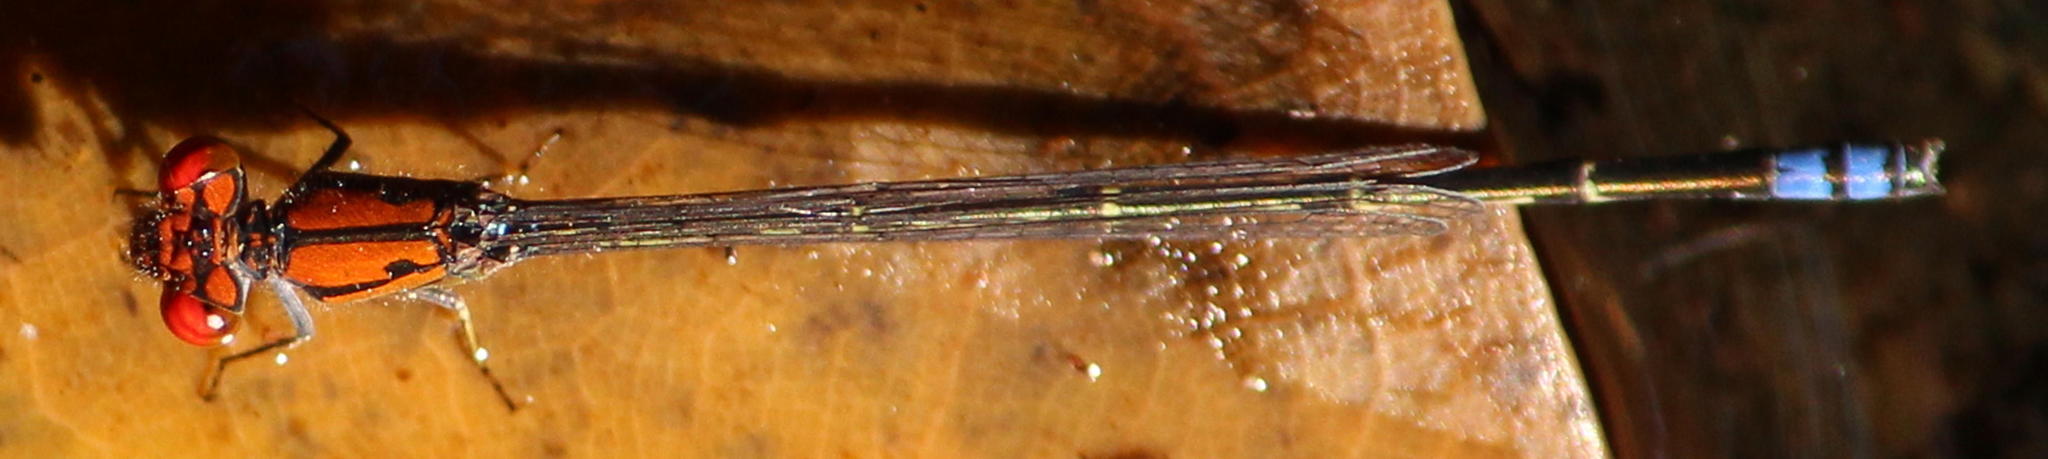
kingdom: Animalia
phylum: Arthropoda
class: Insecta
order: Odonata
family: Coenagrionidae
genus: Pseudagrion
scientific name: Pseudagrion massaicum
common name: Masai sprite
